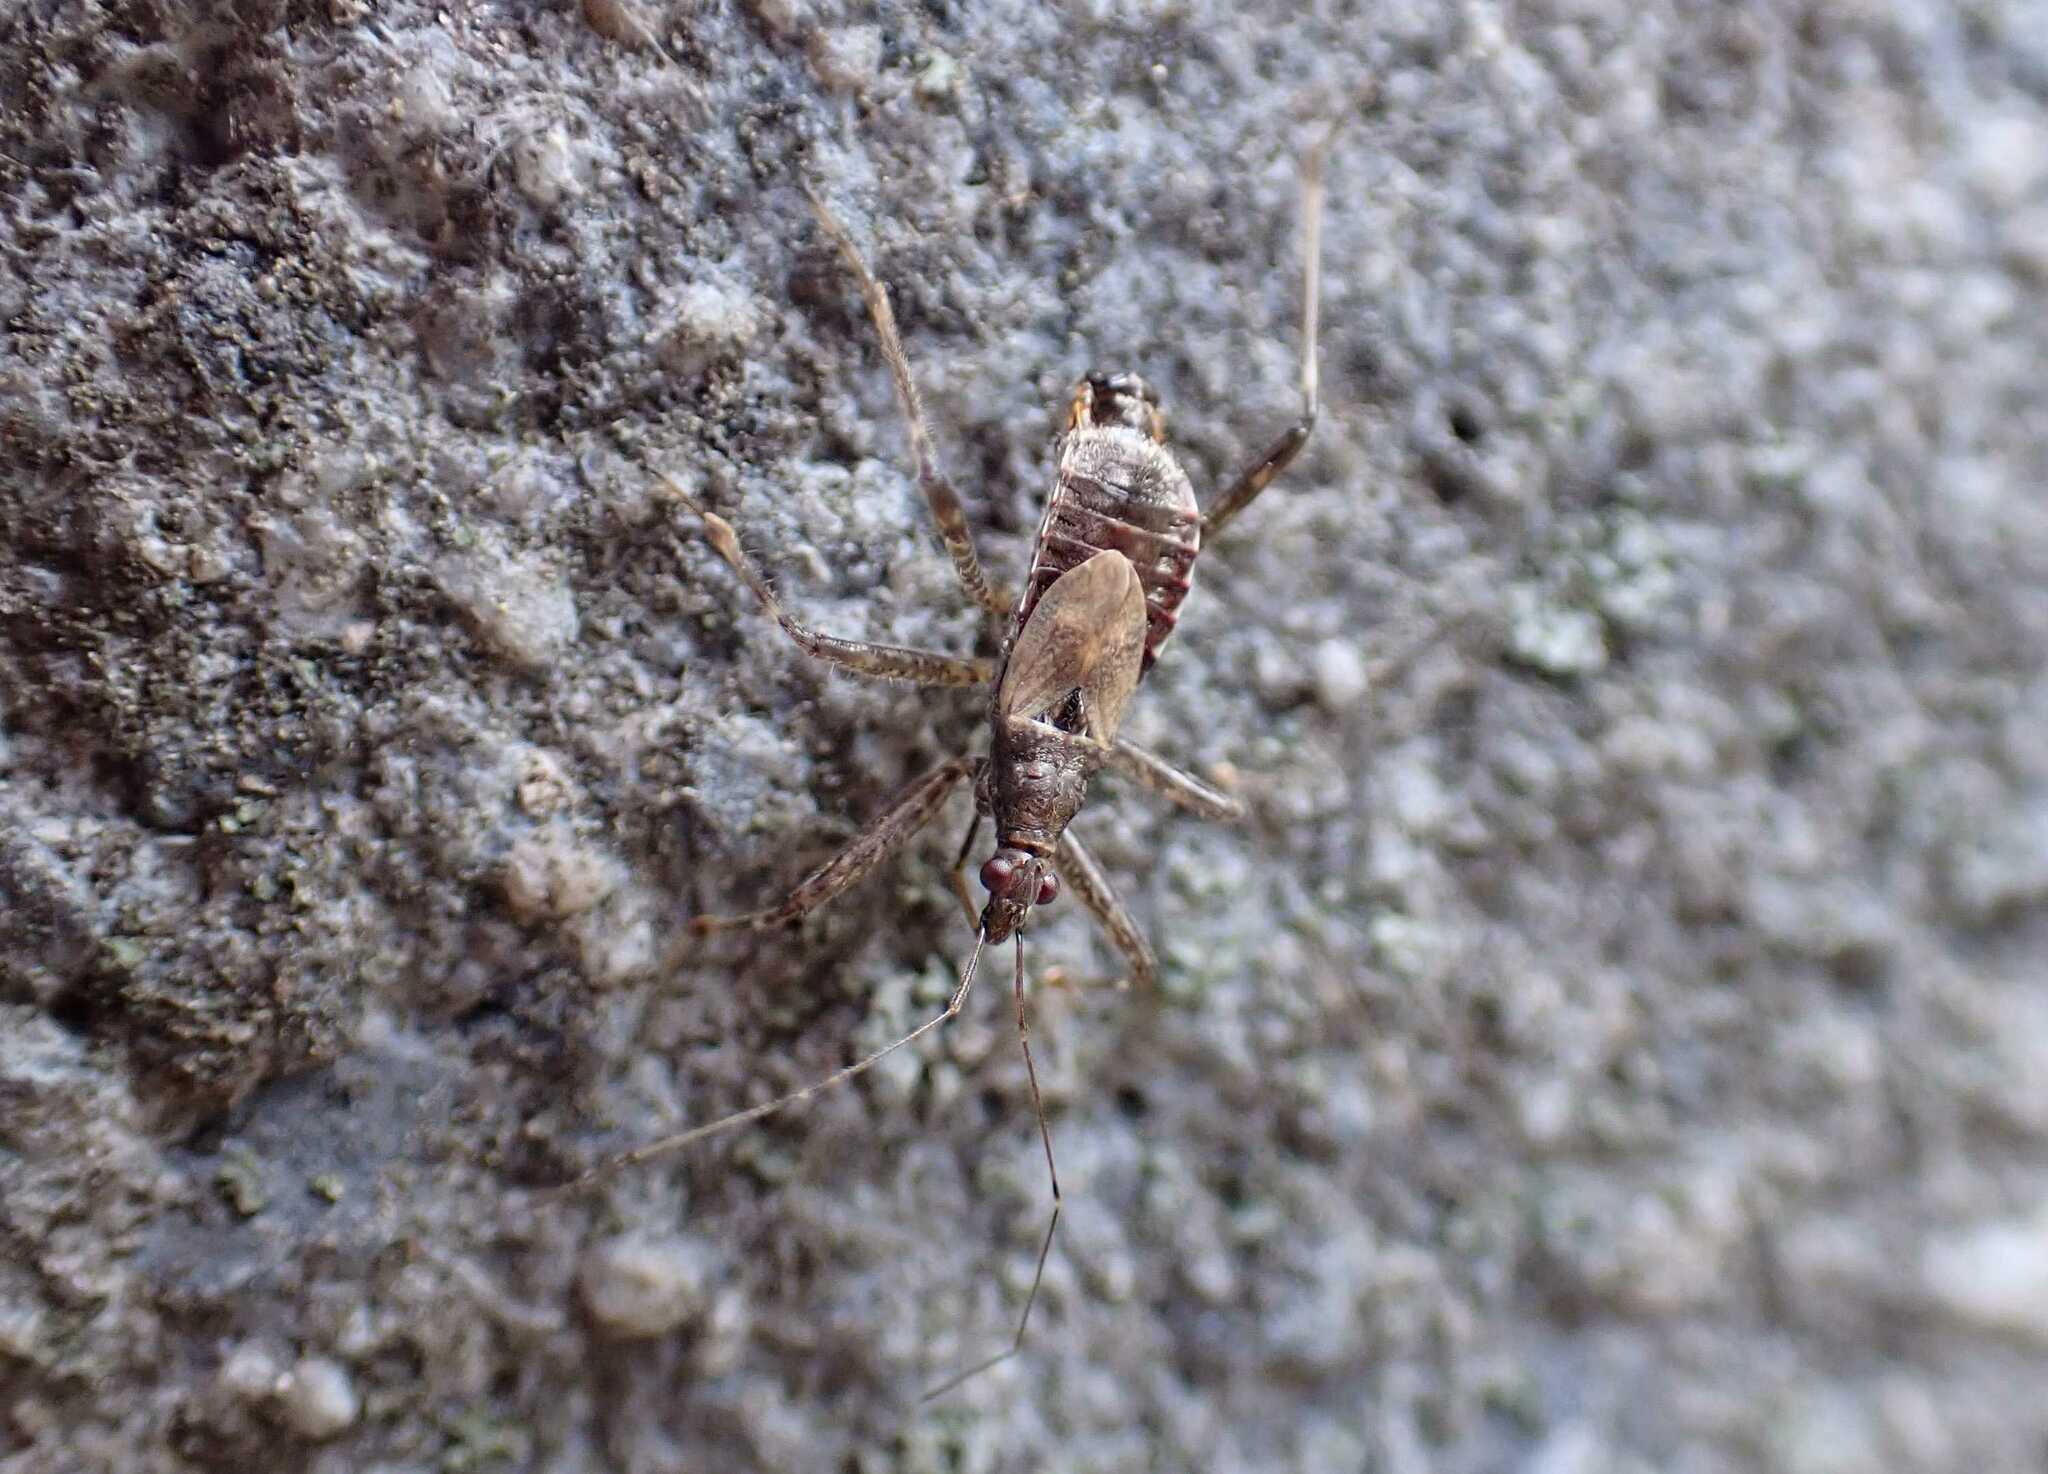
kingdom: Animalia
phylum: Arthropoda
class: Insecta
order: Hemiptera
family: Nabidae
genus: Himacerus
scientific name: Himacerus apterus
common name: Tree damsel bug
